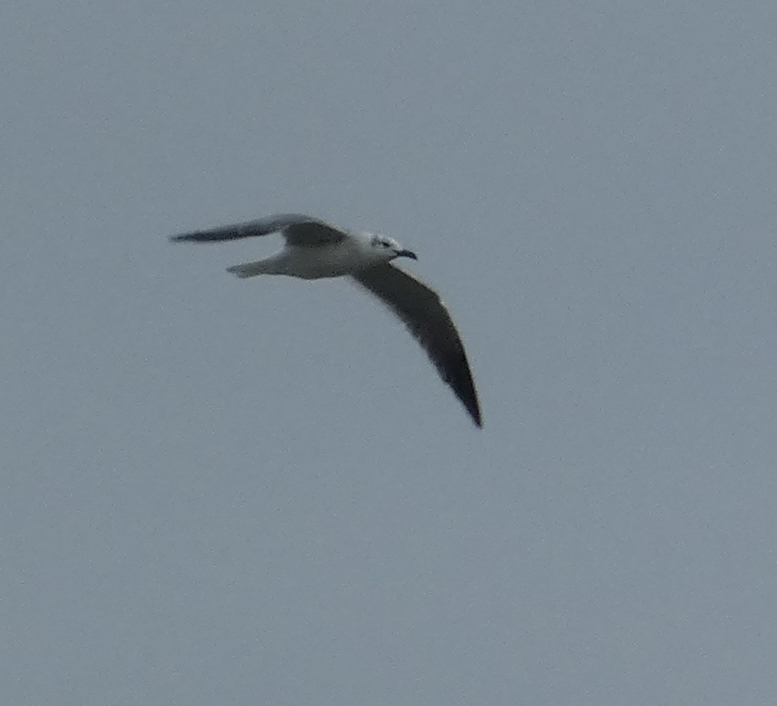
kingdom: Animalia
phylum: Chordata
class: Aves
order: Charadriiformes
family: Laridae
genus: Leucophaeus
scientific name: Leucophaeus atricilla
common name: Laughing gull
